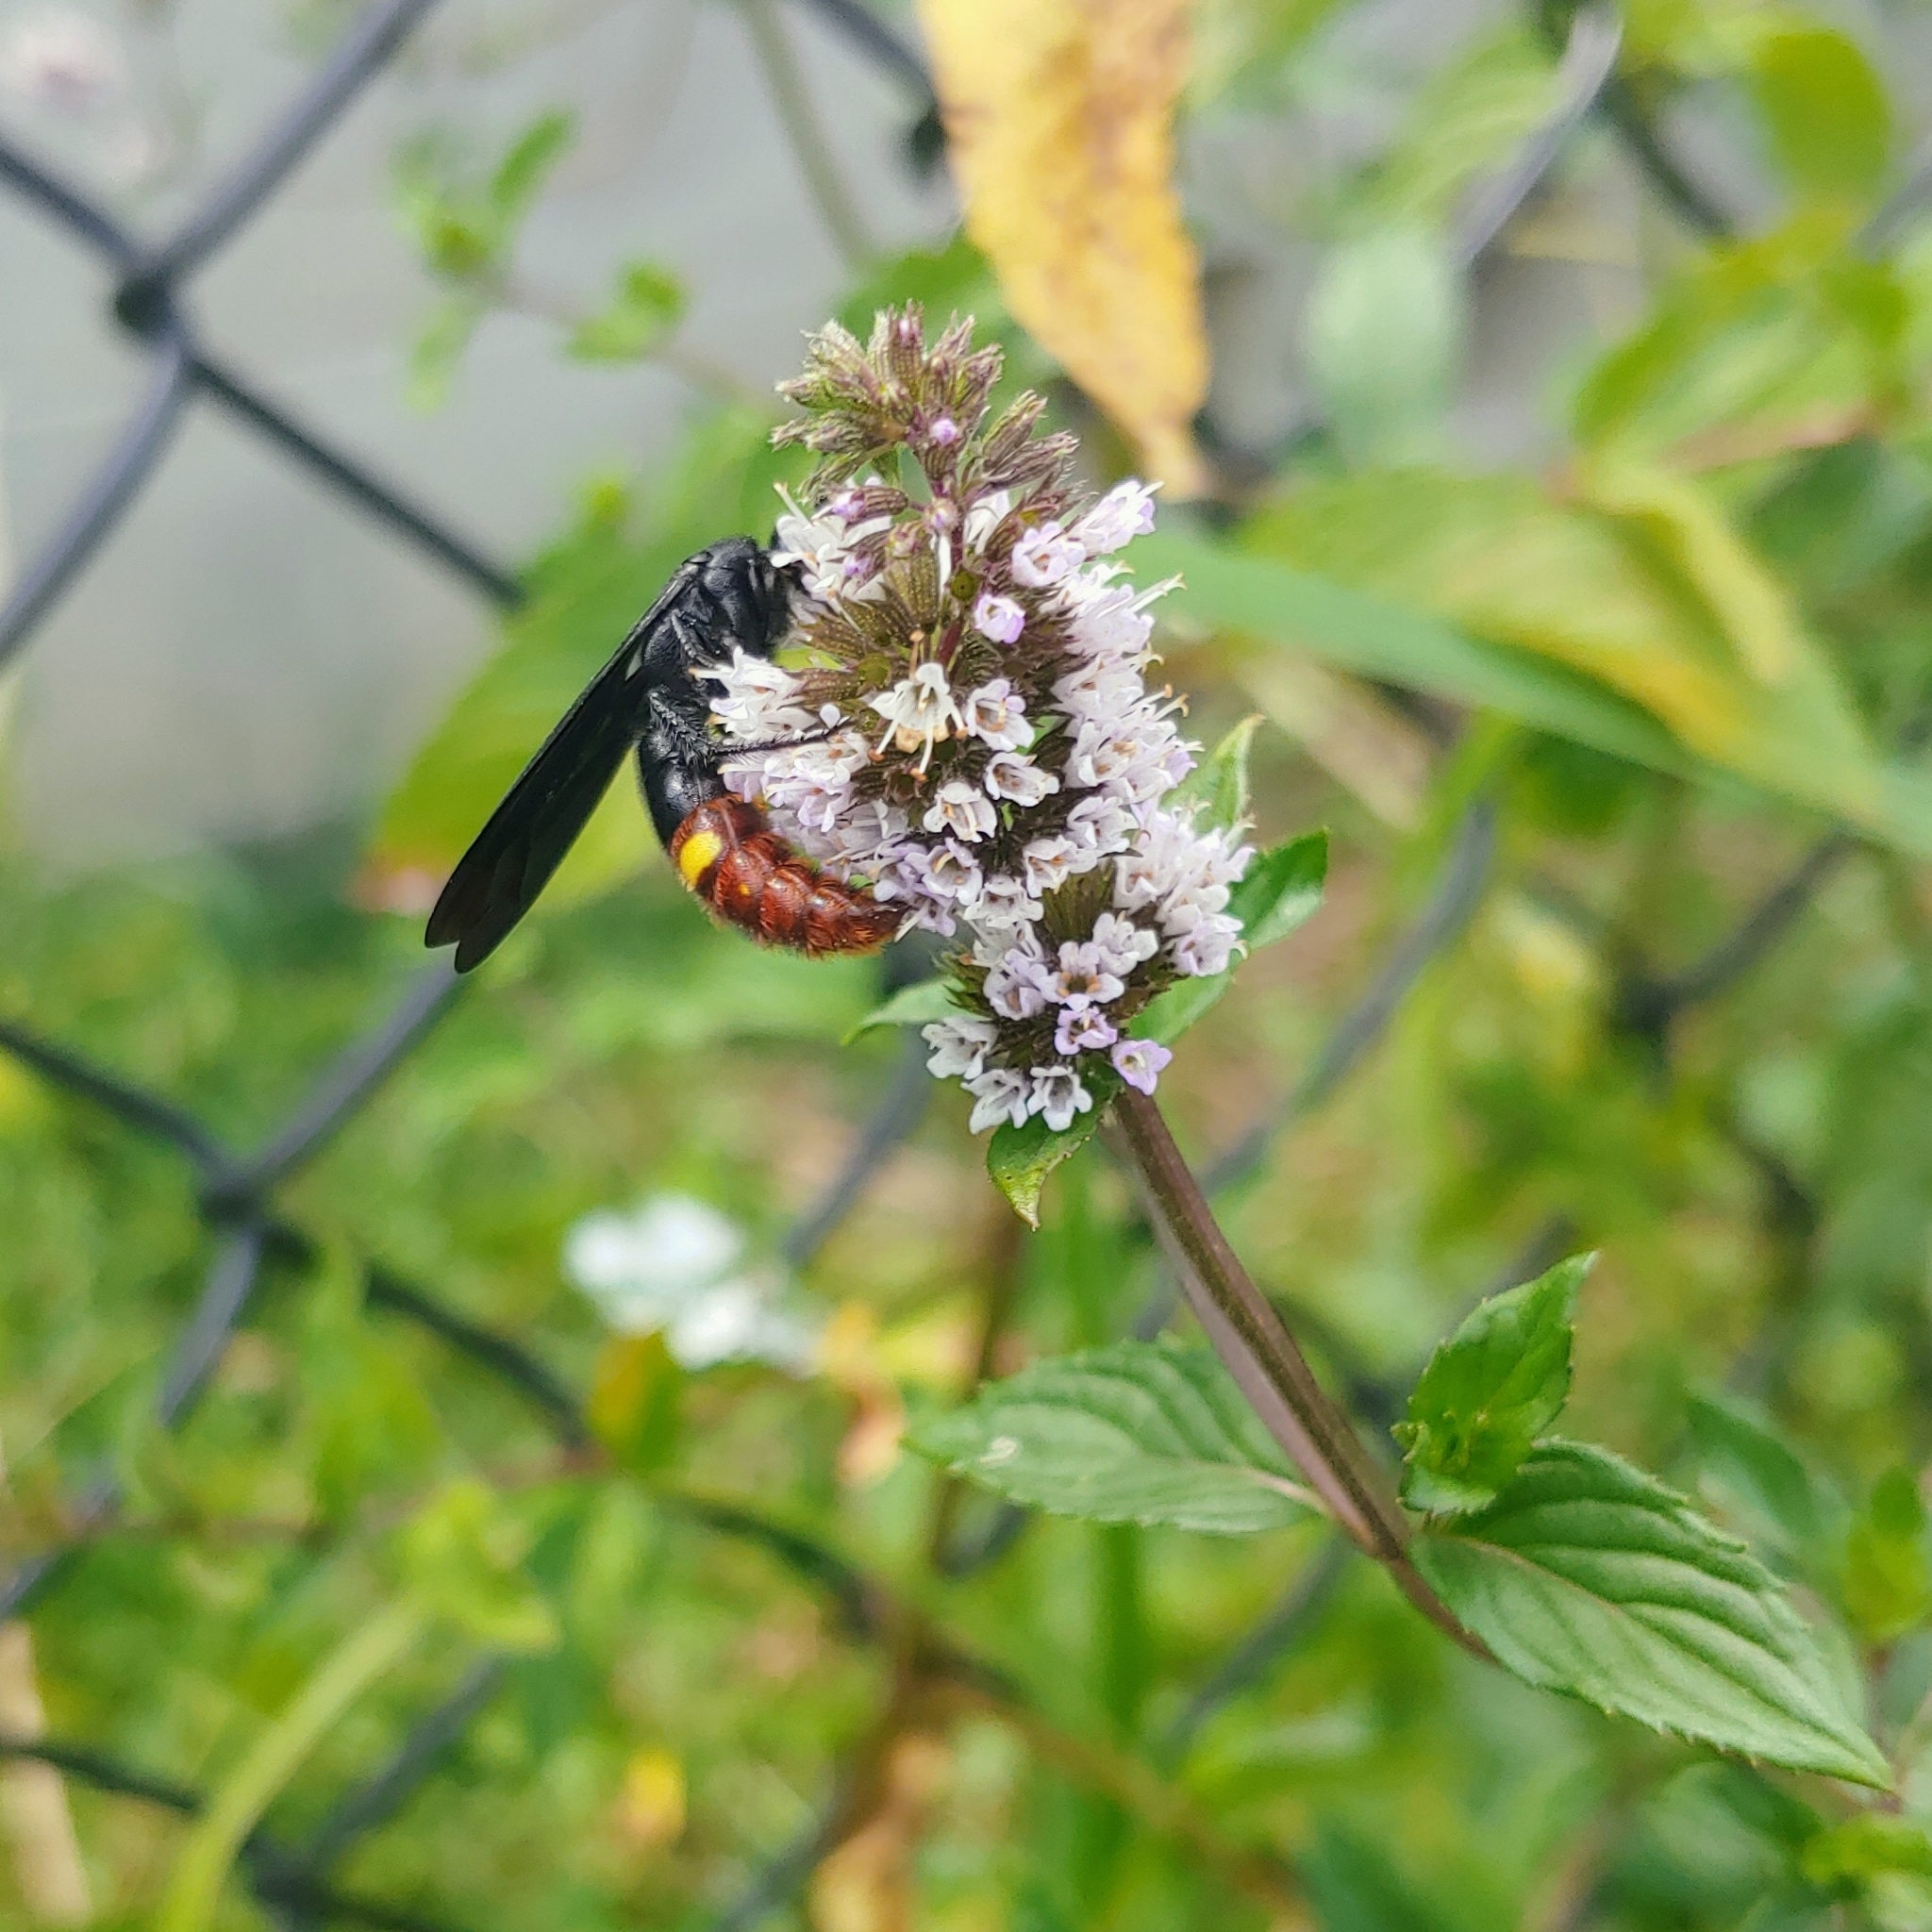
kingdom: Animalia
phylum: Arthropoda
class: Insecta
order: Hymenoptera
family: Scoliidae
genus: Scolia
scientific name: Scolia dubia
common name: Blue-winged scoliid wasp
